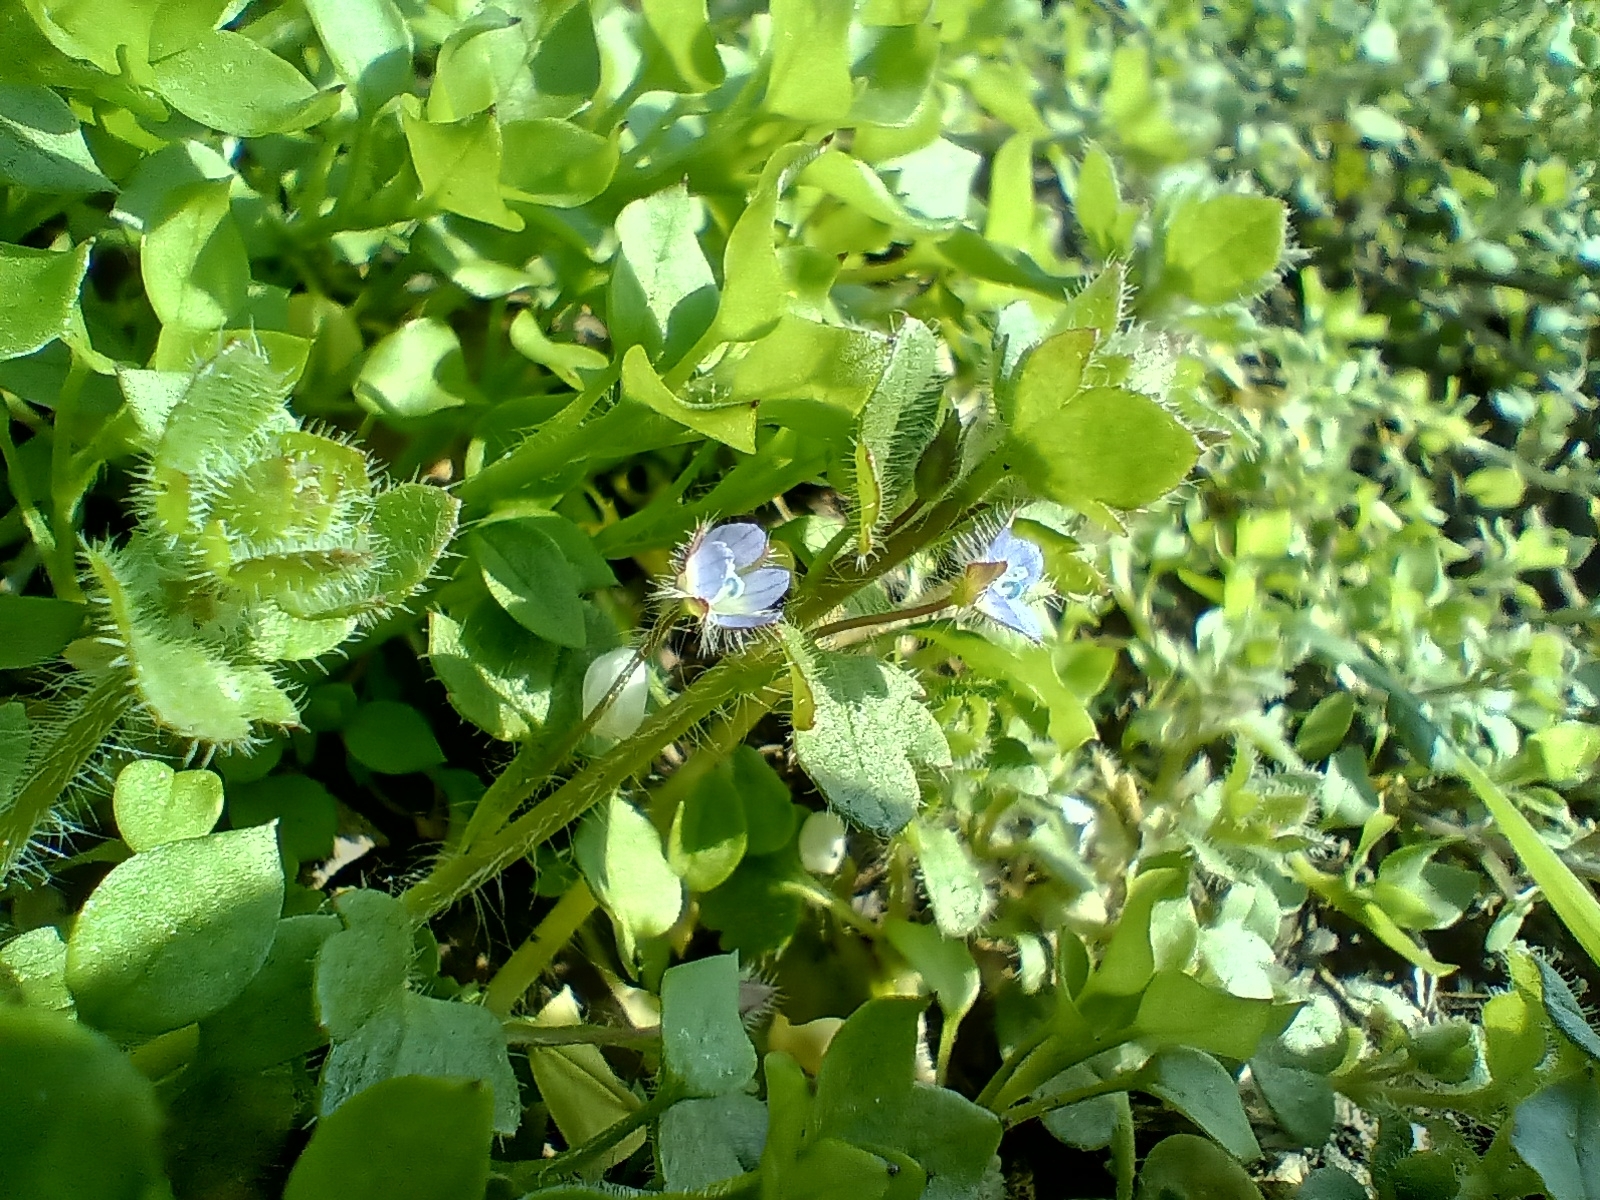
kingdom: Plantae
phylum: Tracheophyta
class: Magnoliopsida
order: Lamiales
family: Plantaginaceae
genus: Veronica
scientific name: Veronica sublobata
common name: False ivy-leaved speedwell
